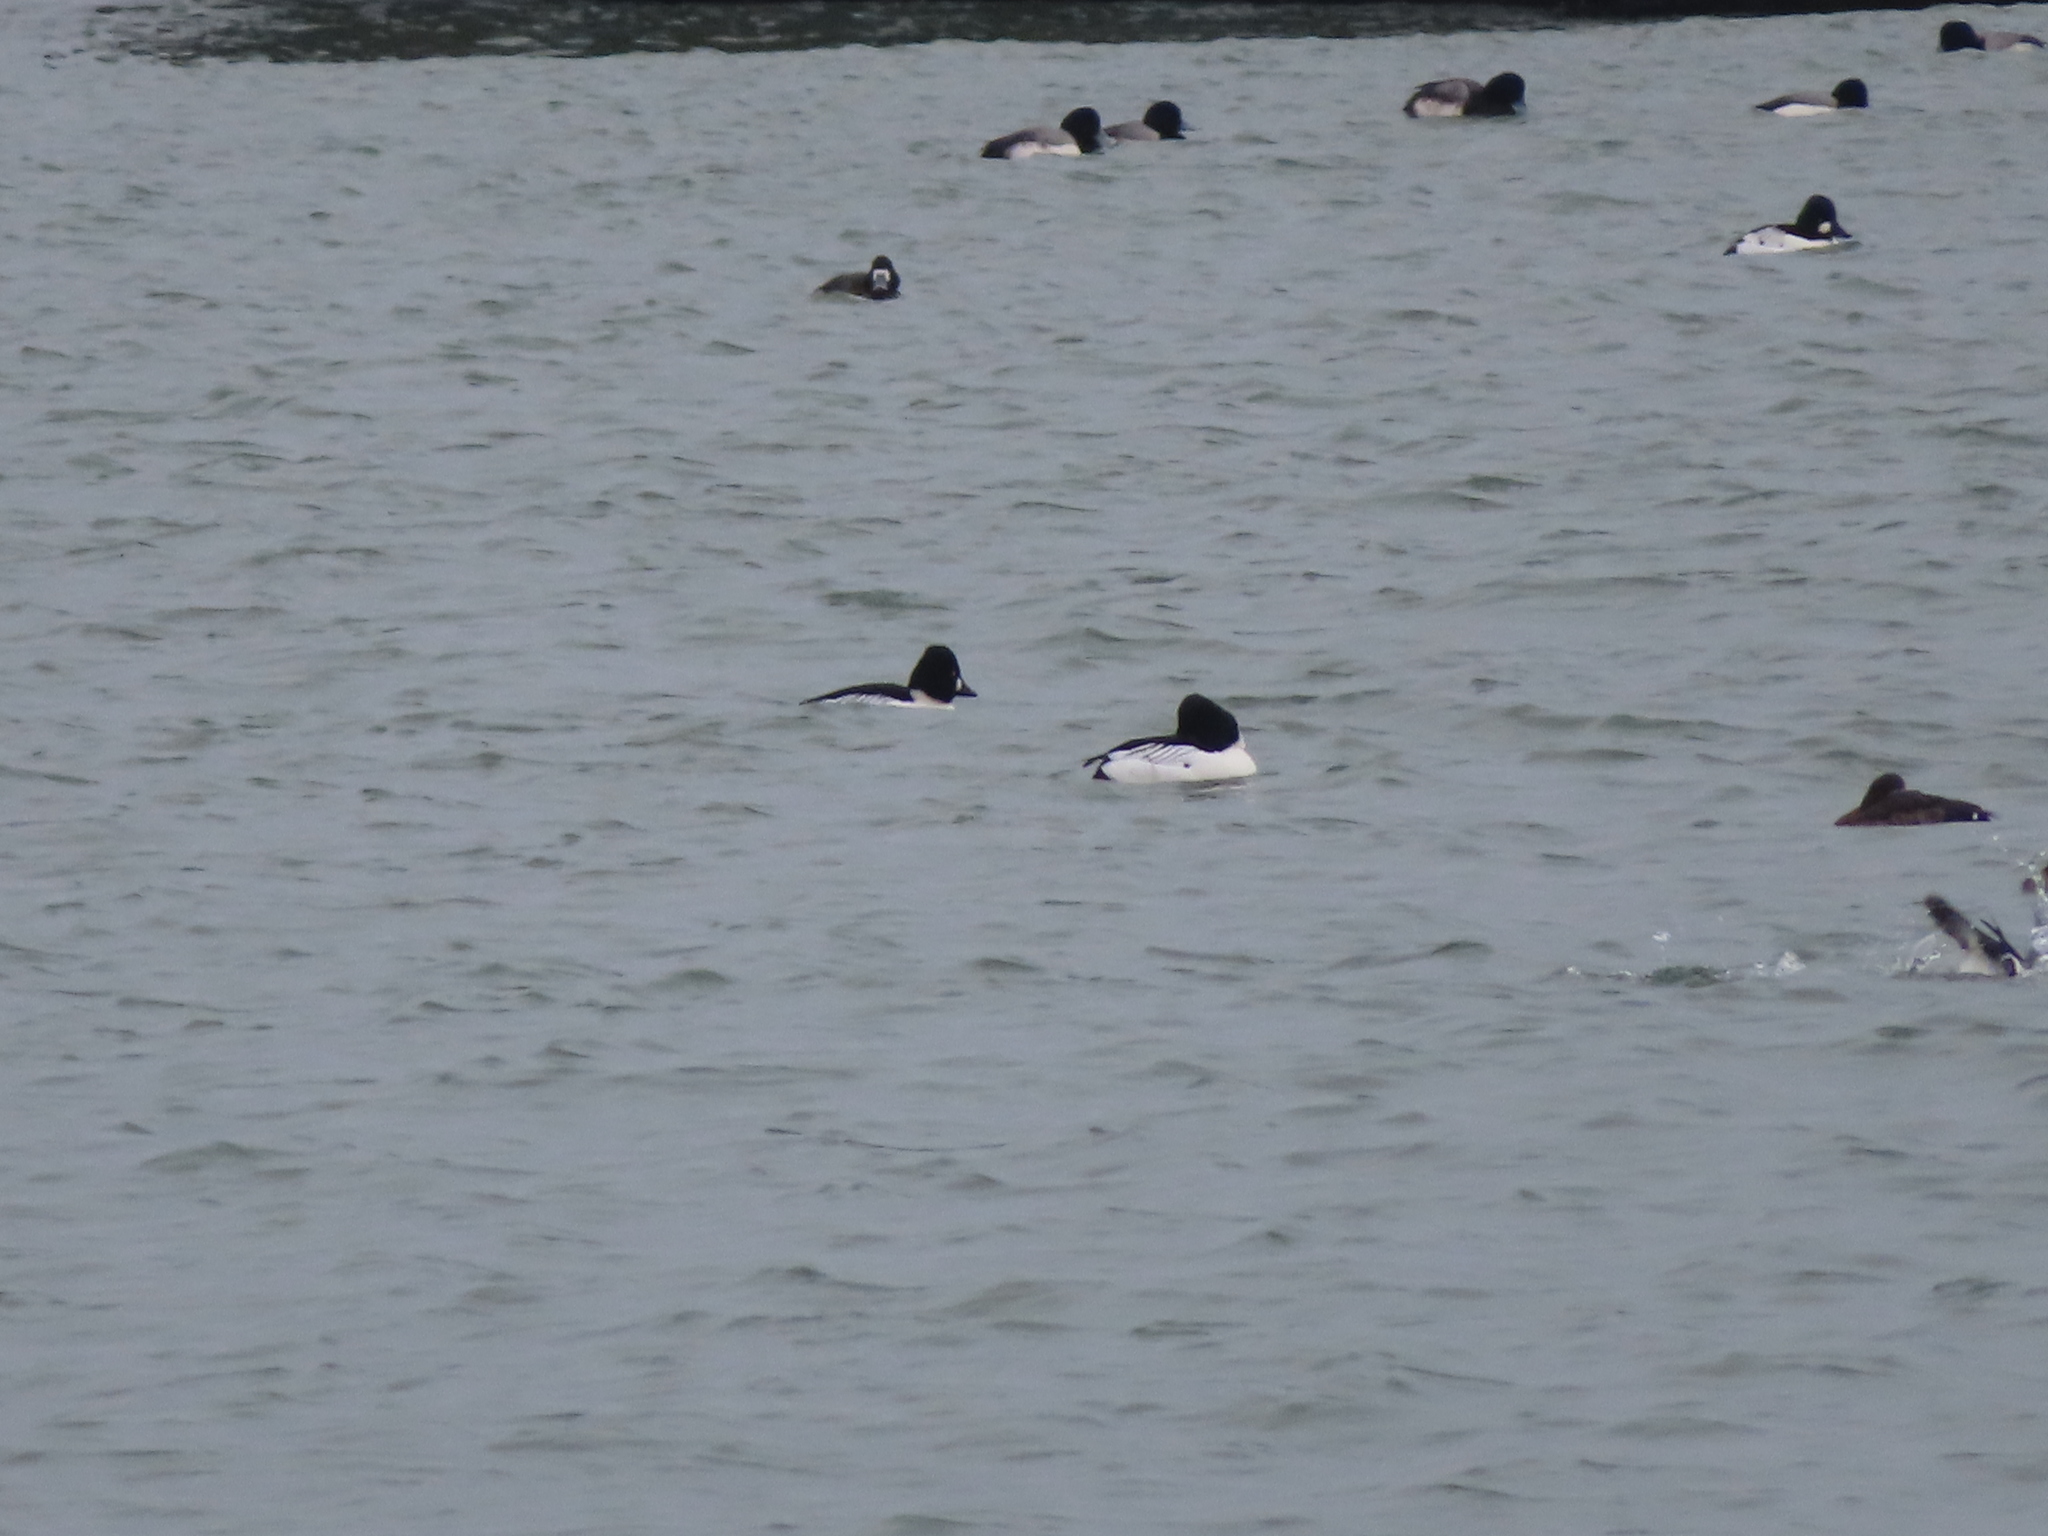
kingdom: Animalia
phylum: Chordata
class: Aves
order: Anseriformes
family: Anatidae
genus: Bucephala
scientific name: Bucephala clangula
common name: Common goldeneye
